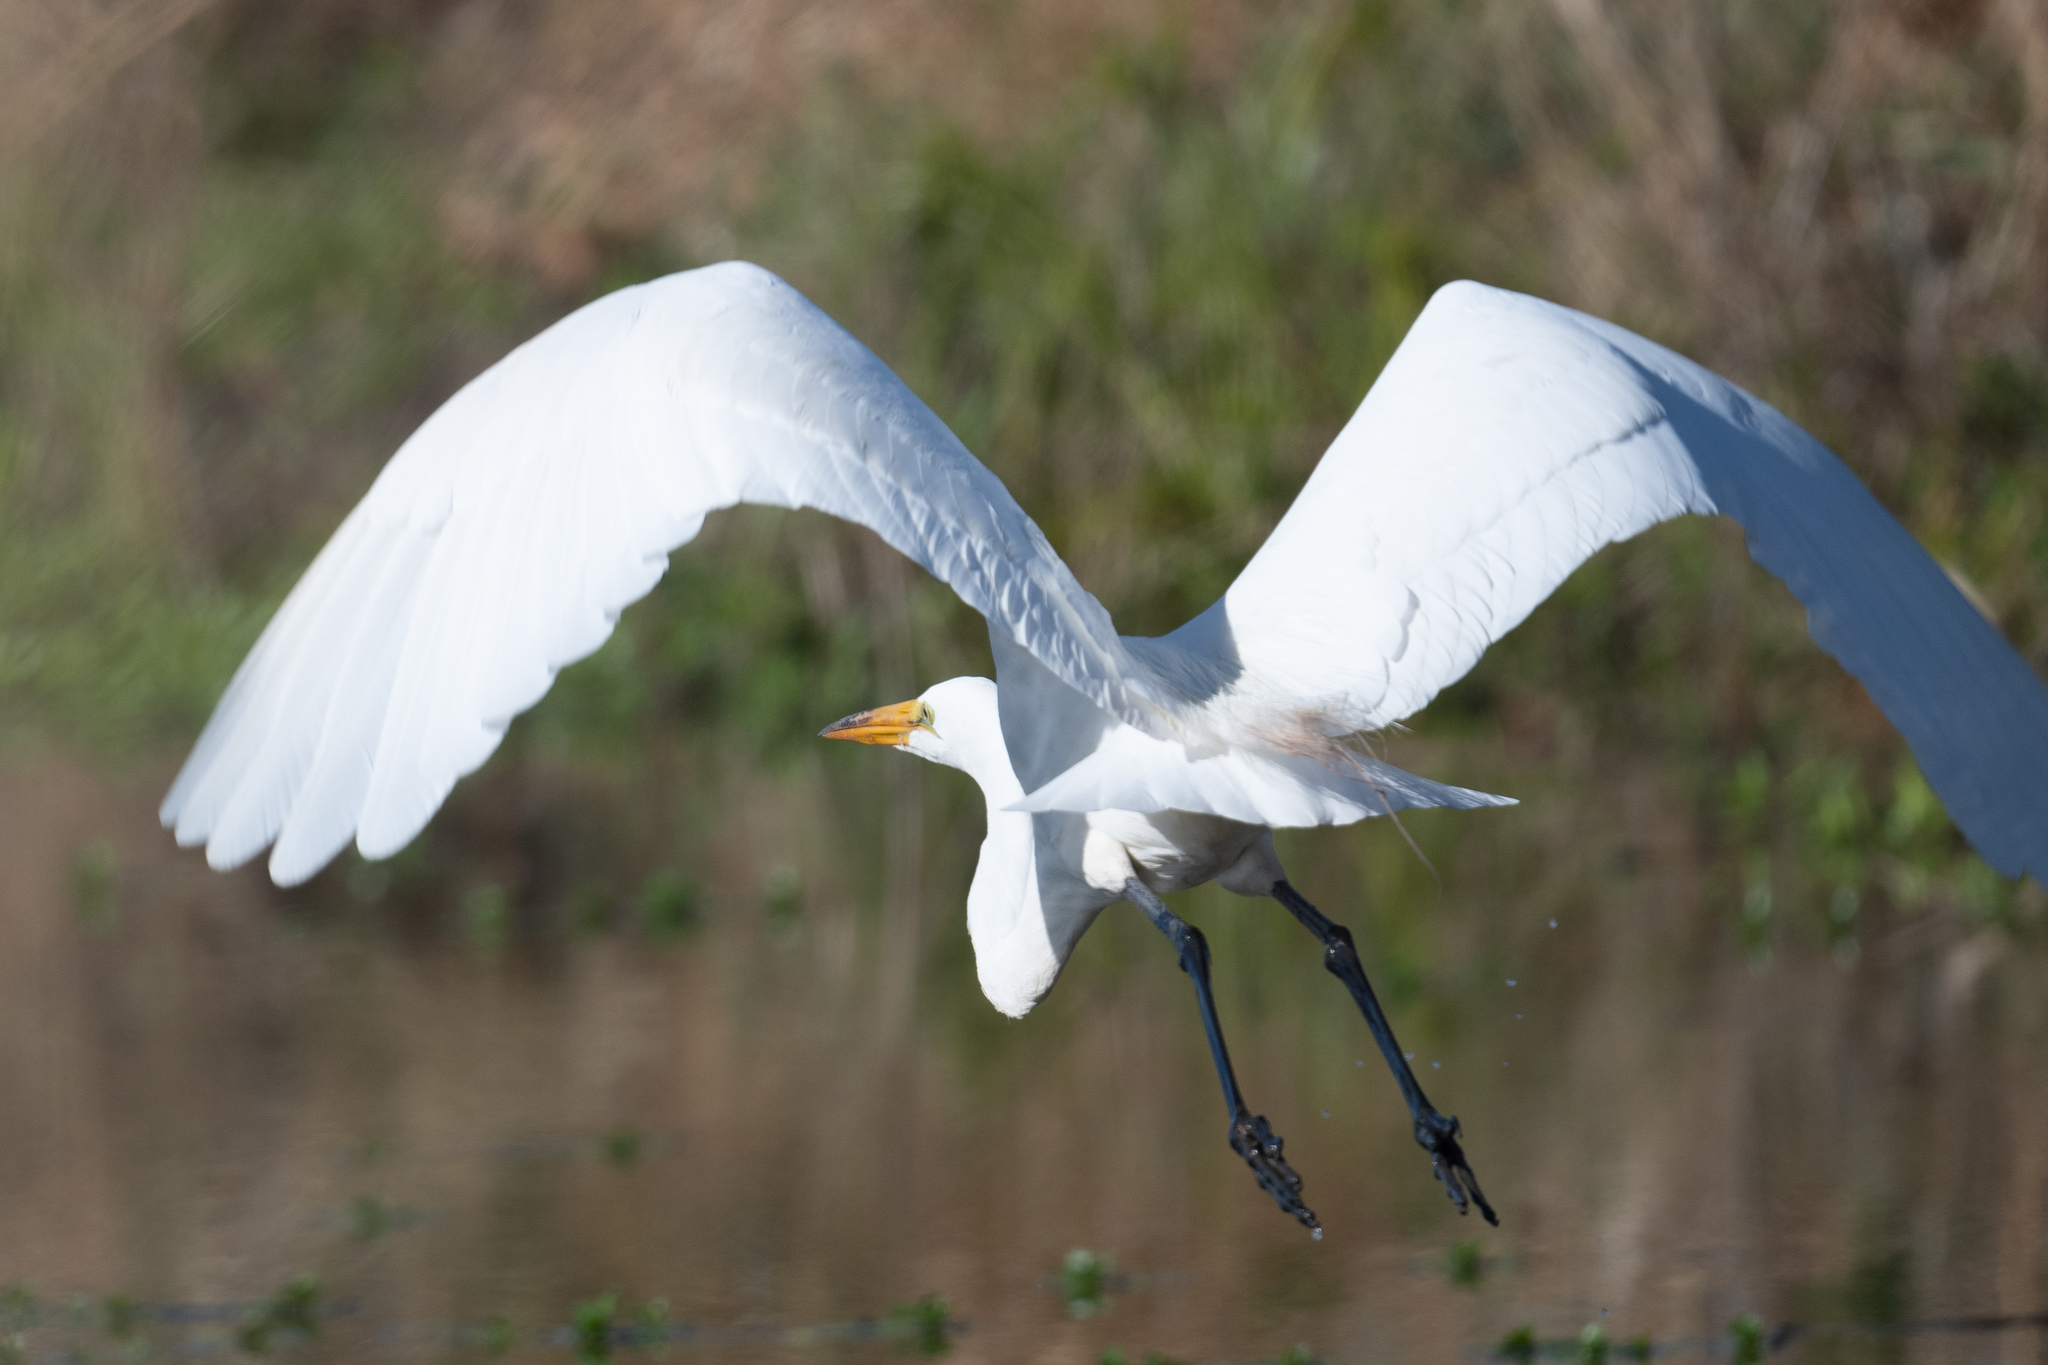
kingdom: Animalia
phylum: Chordata
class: Aves
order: Pelecaniformes
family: Ardeidae
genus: Ardea
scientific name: Ardea alba
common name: Great egret
